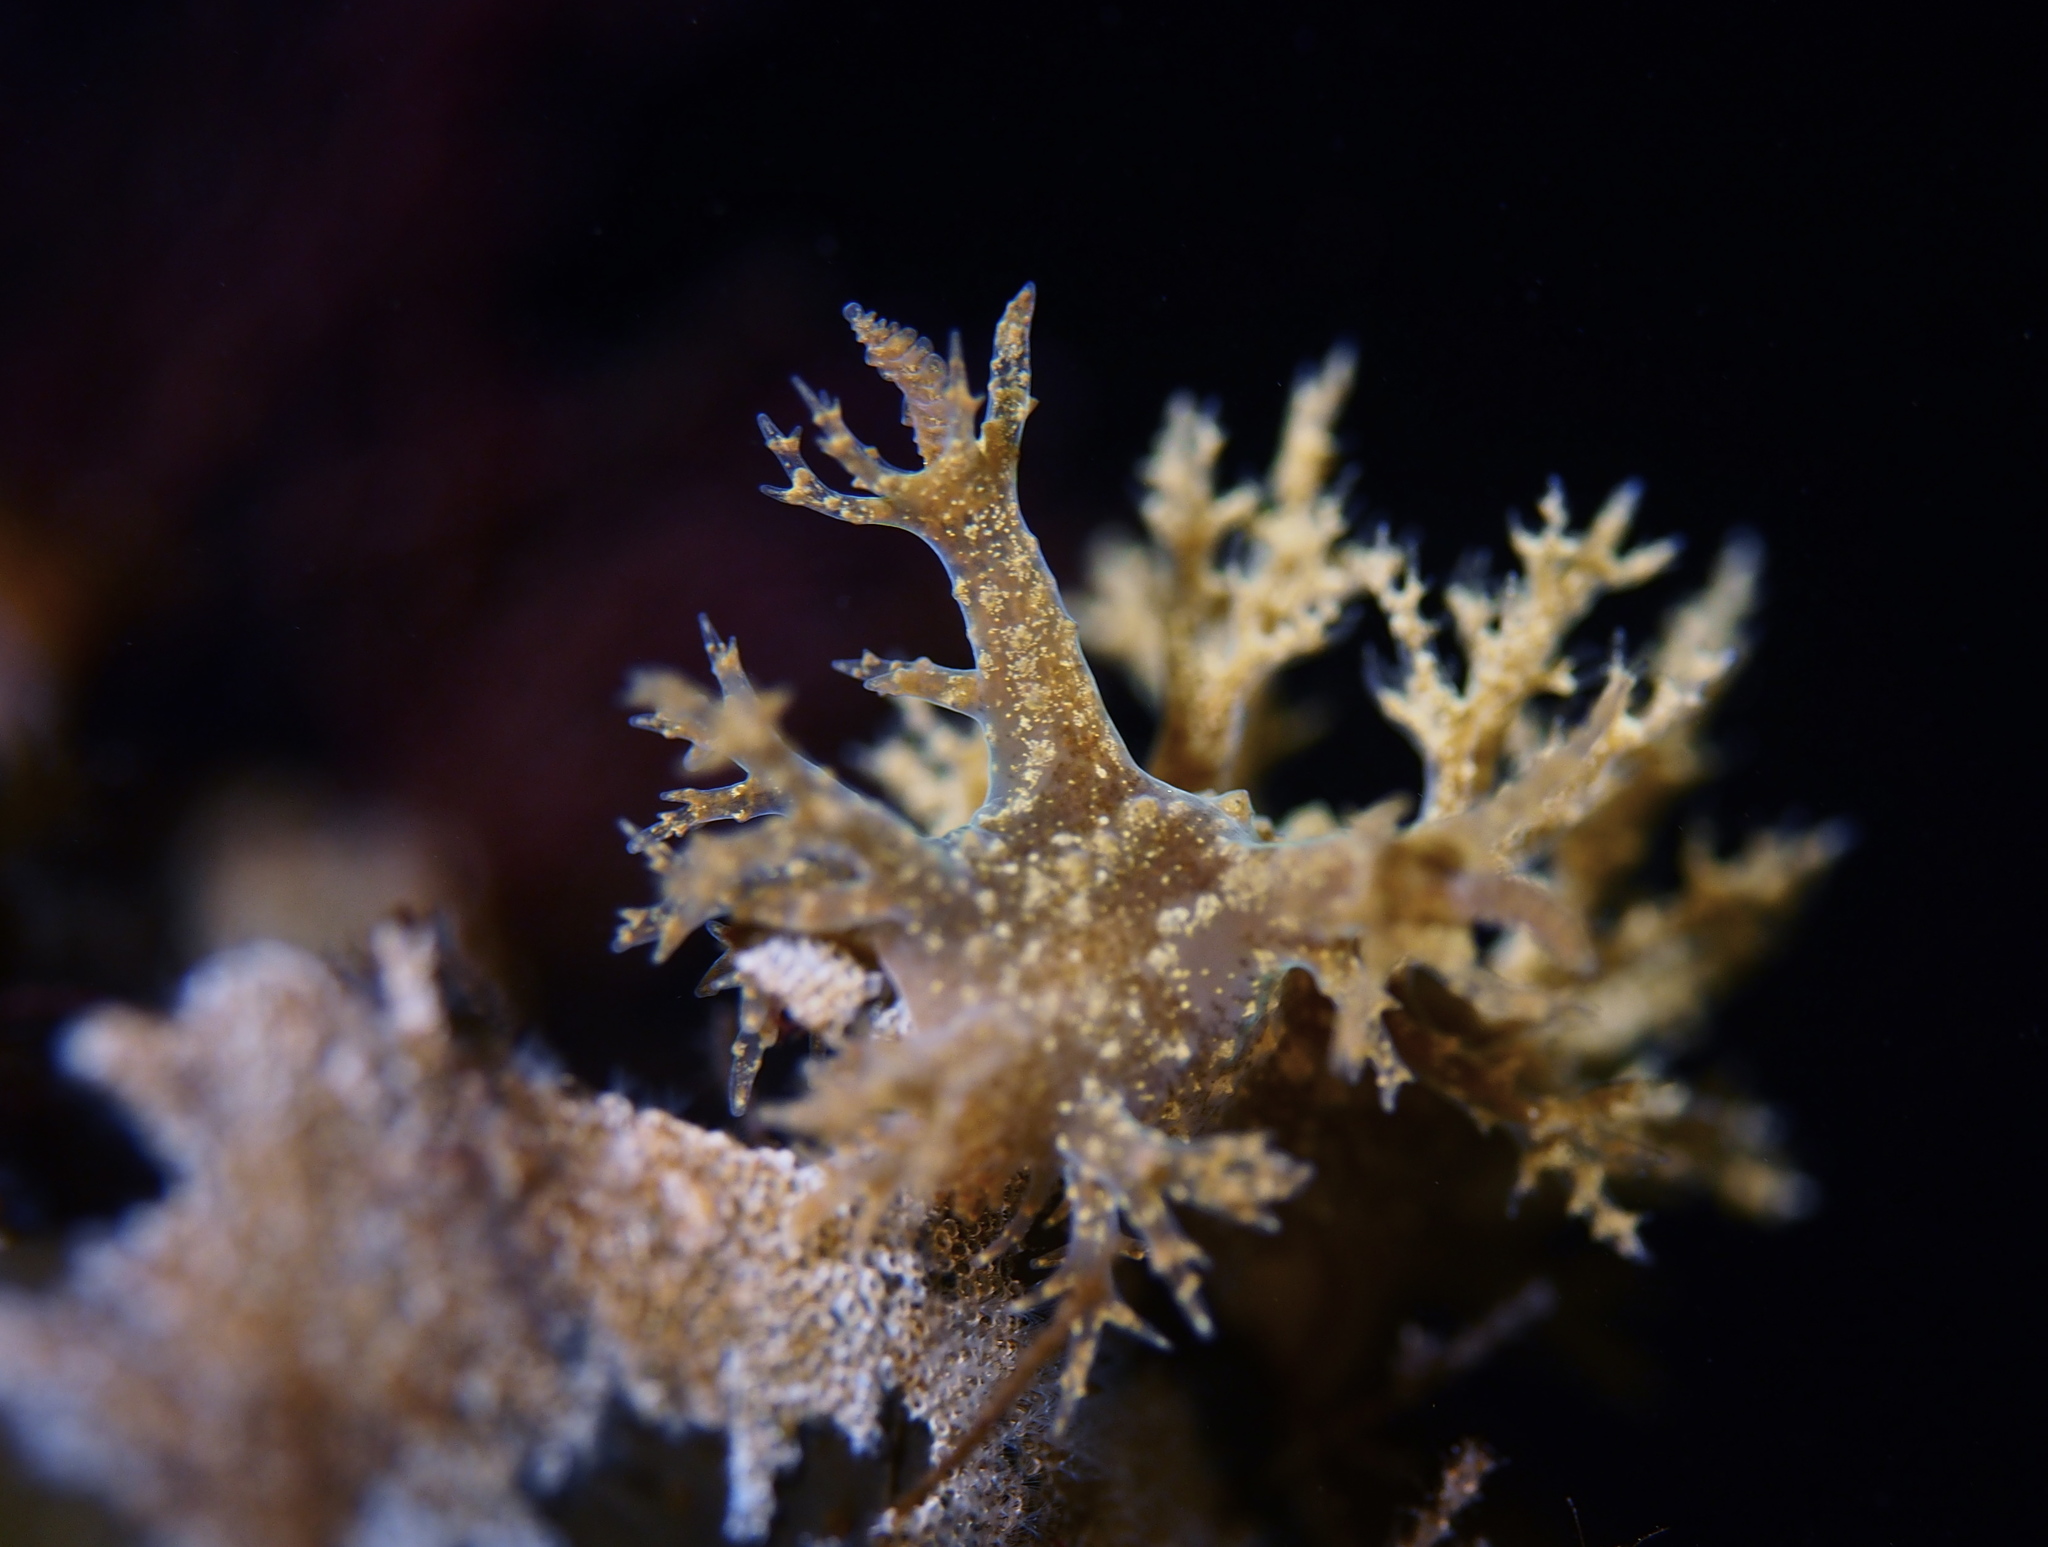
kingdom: Animalia
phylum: Mollusca
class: Gastropoda
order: Nudibranchia
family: Dendronotidae
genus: Dendronotus
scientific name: Dendronotus frondosus
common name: Bushy-backed nudibranch
